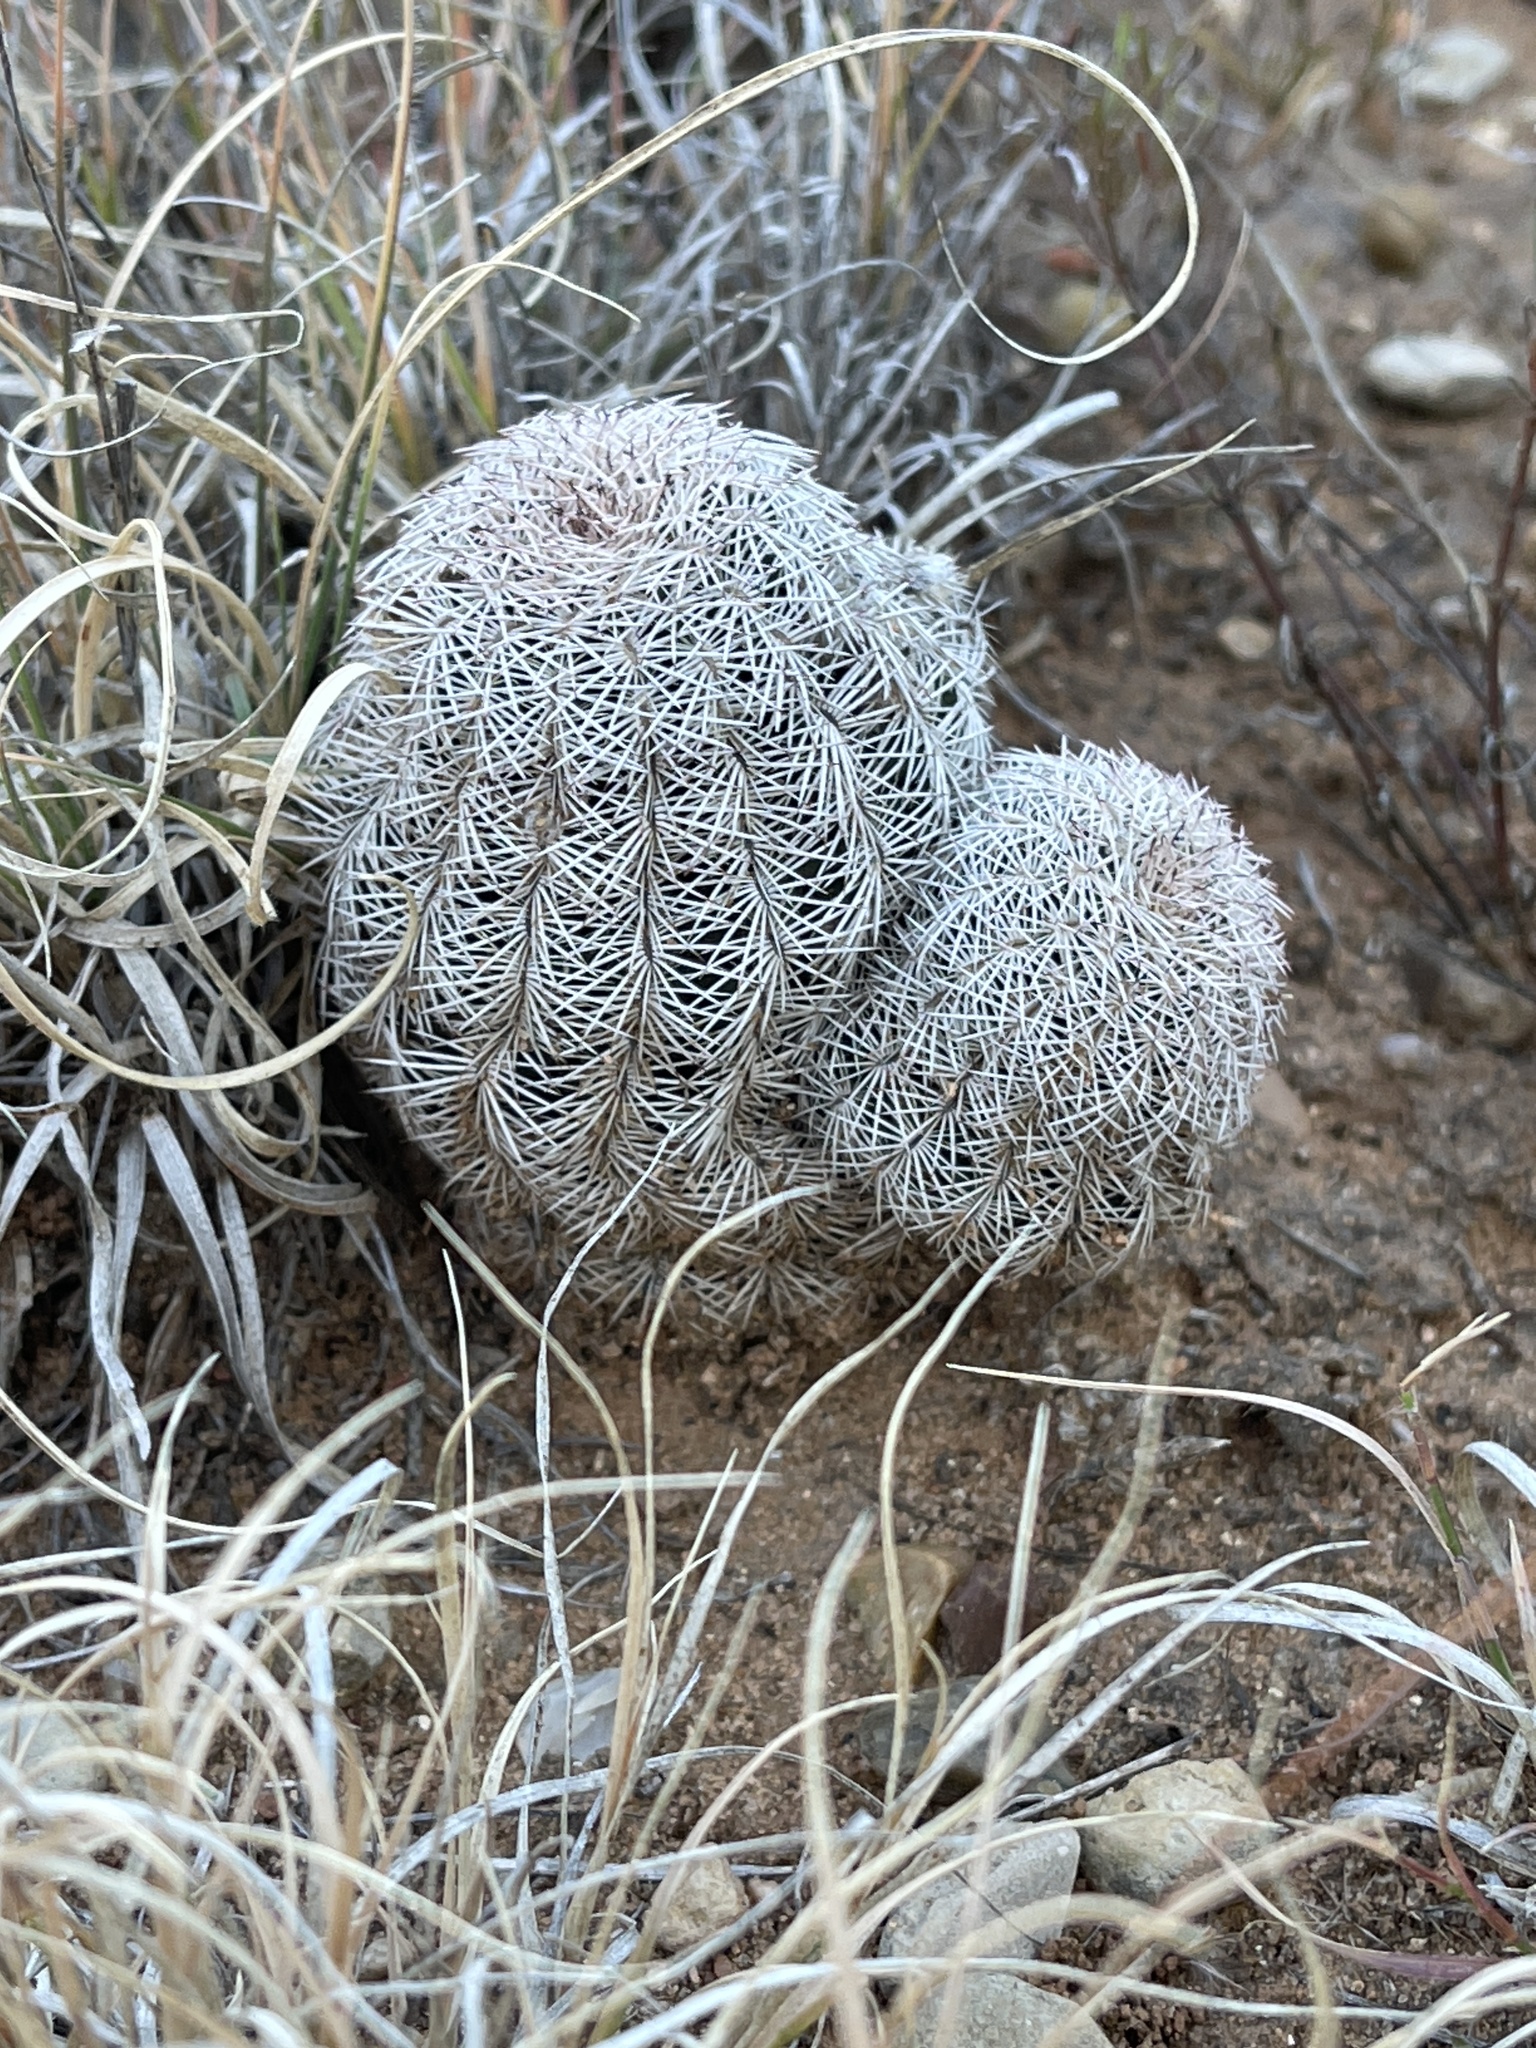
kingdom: Plantae
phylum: Tracheophyta
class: Magnoliopsida
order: Caryophyllales
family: Cactaceae
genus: Echinocereus
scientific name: Echinocereus reichenbachii
